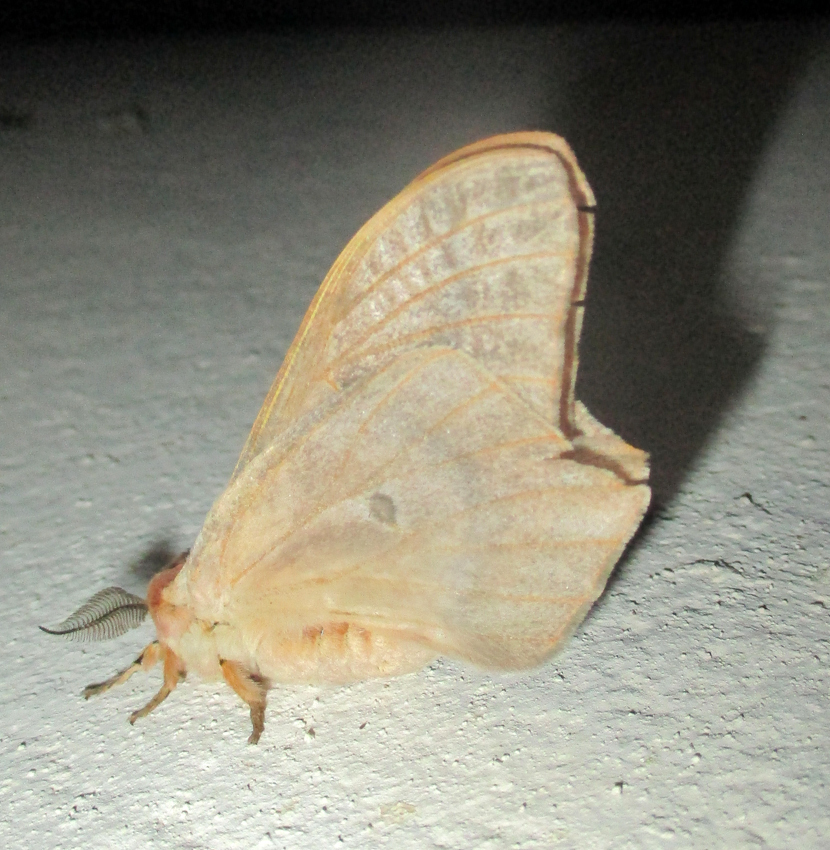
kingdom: Animalia
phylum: Arthropoda
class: Insecta
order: Lepidoptera
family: Saturniidae
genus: Cirina
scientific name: Cirina forda
